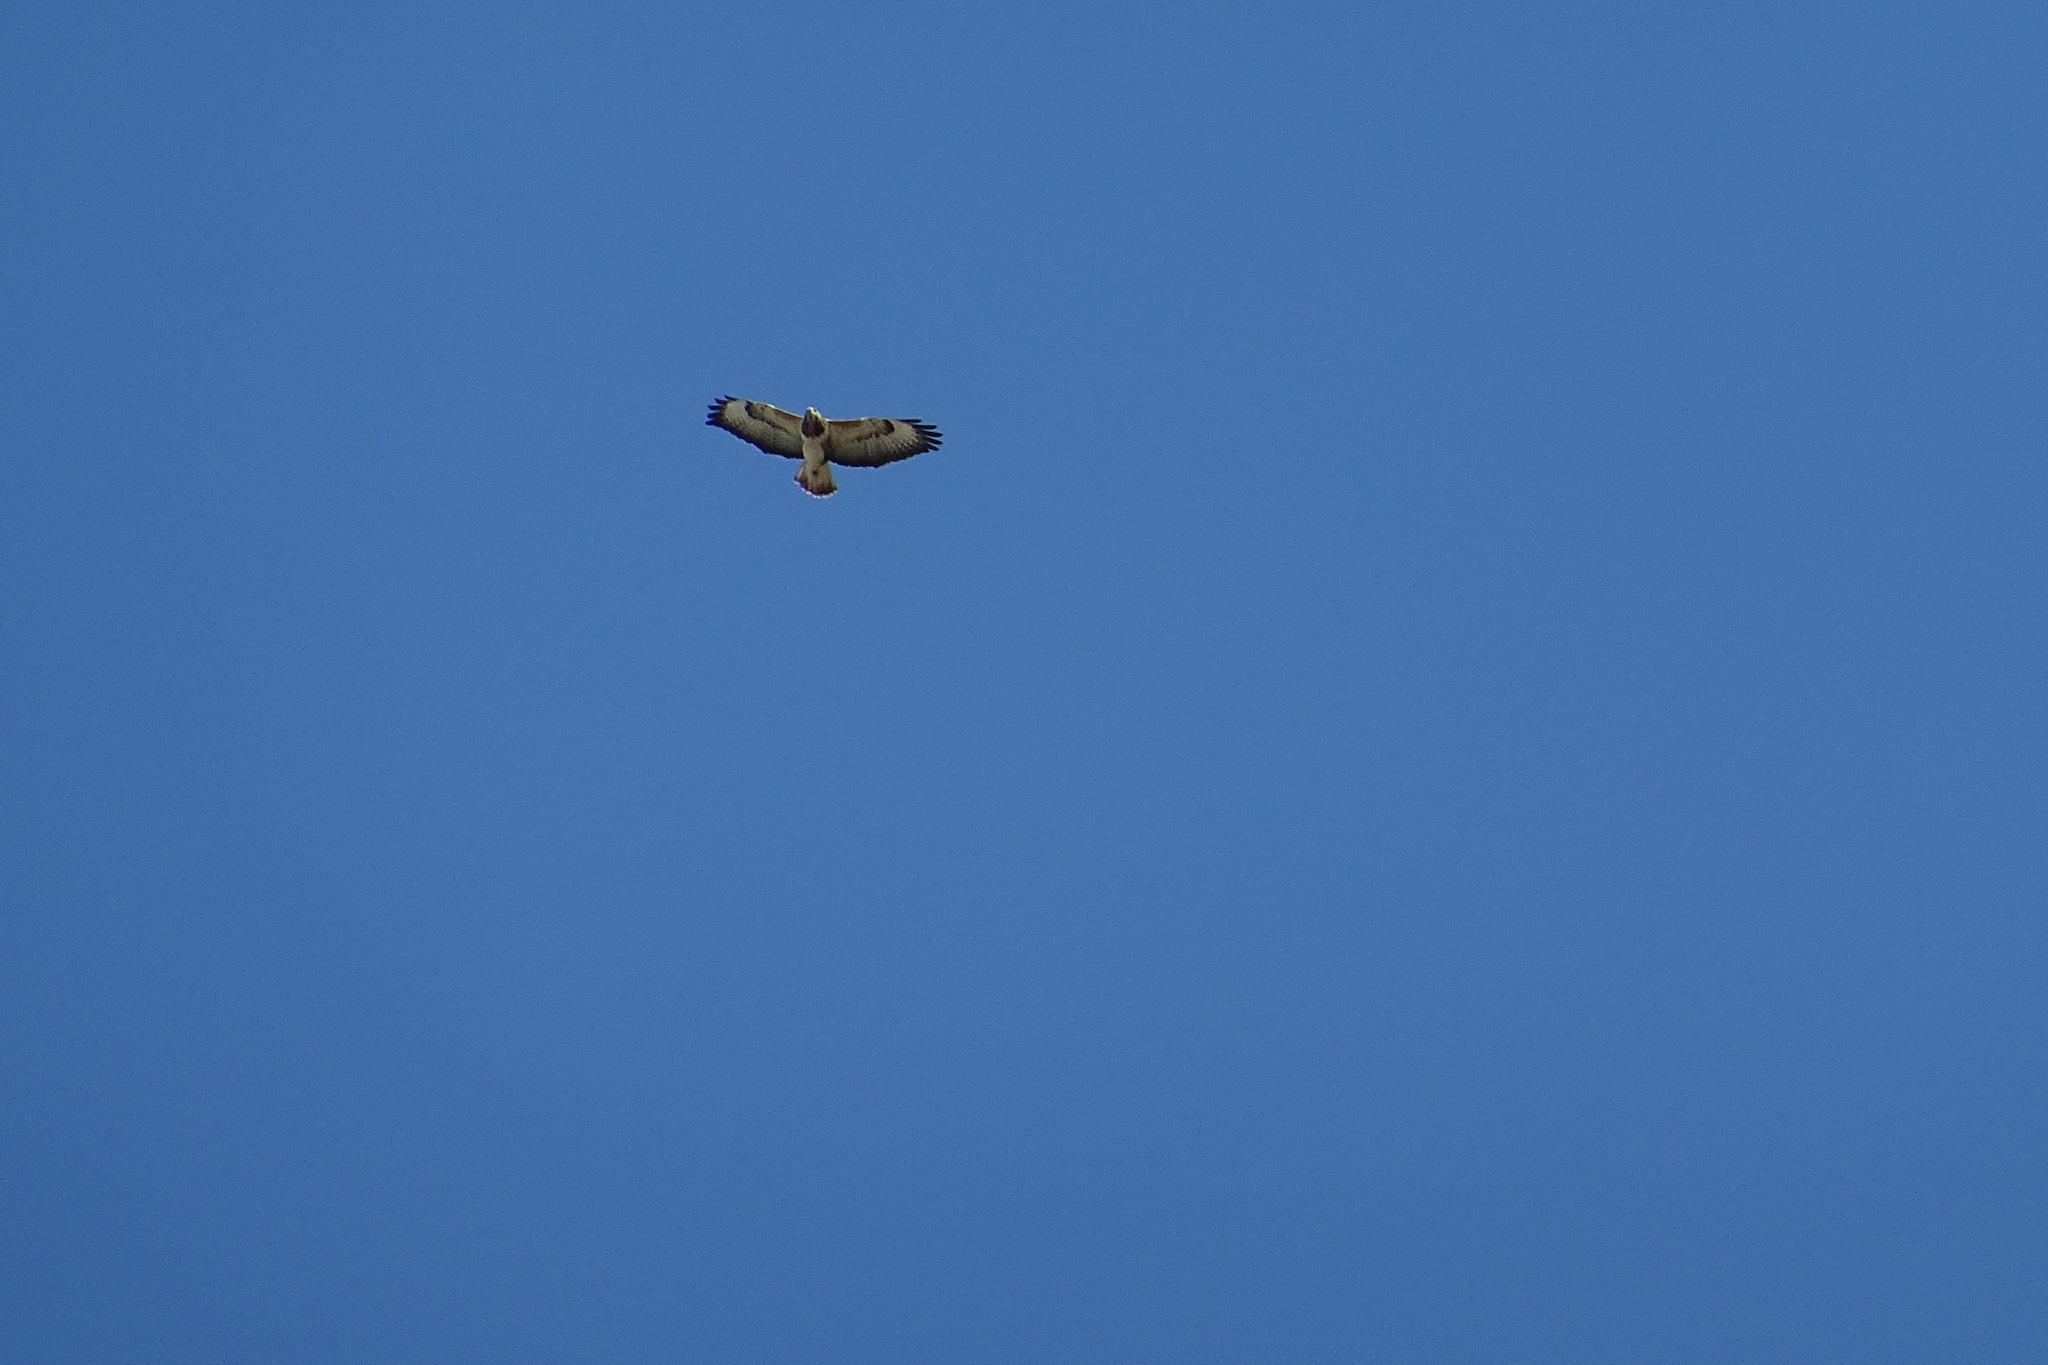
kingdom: Animalia
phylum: Chordata
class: Aves
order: Accipitriformes
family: Accipitridae
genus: Buteo
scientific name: Buteo buteo
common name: Common buzzard
